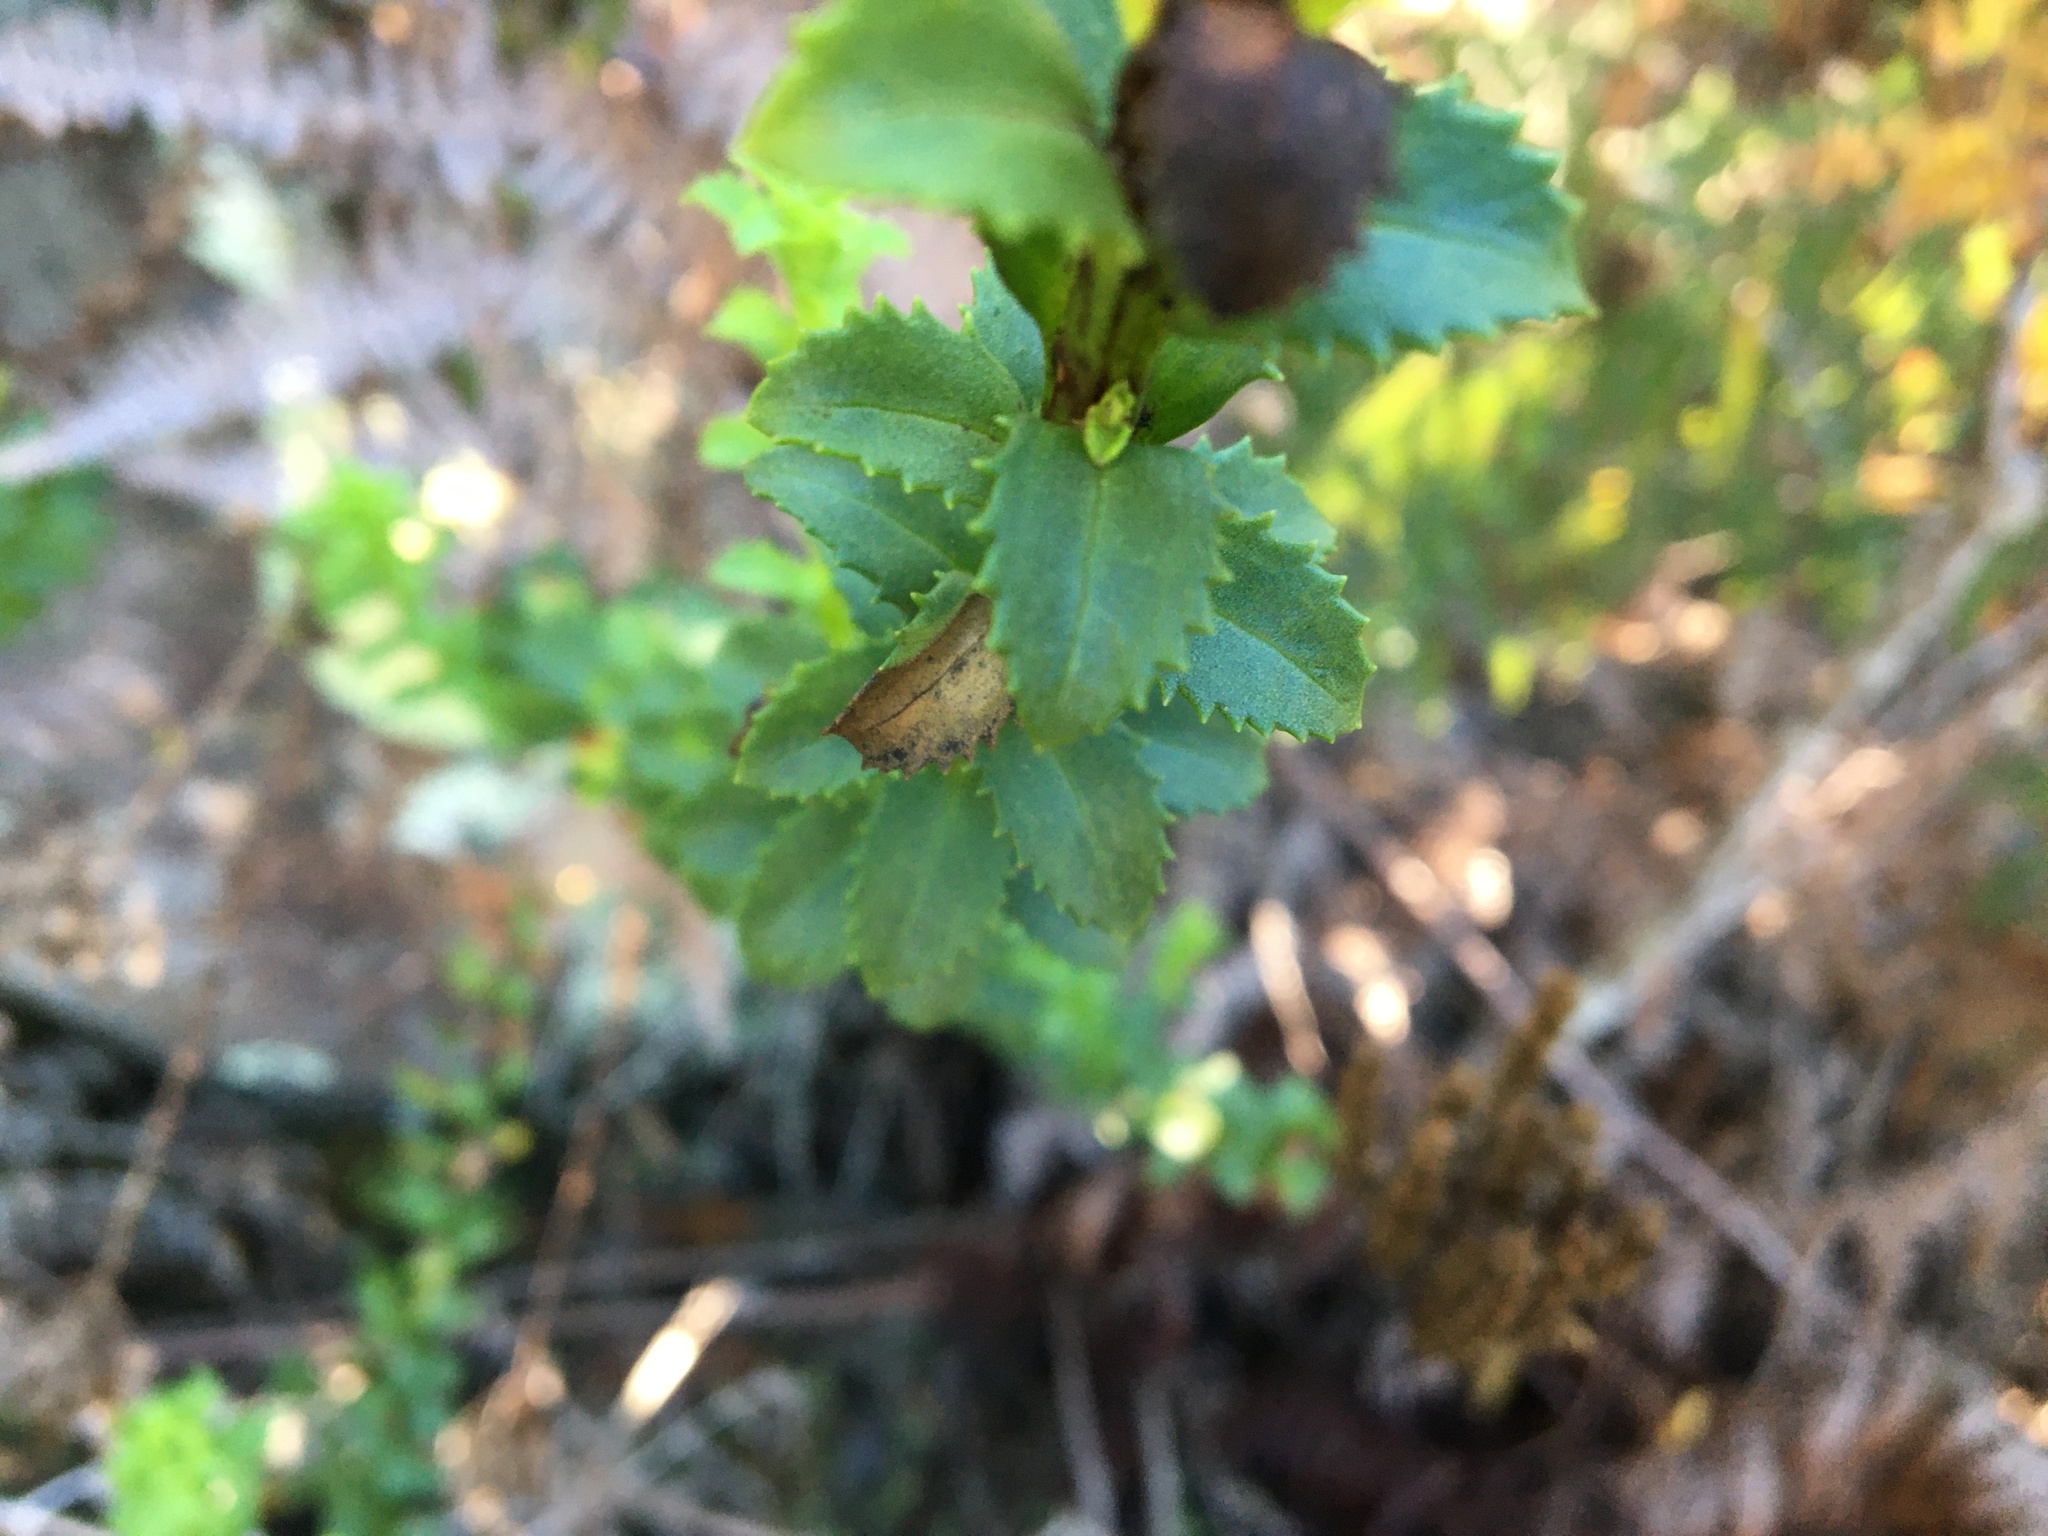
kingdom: Plantae
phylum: Tracheophyta
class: Magnoliopsida
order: Lamiales
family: Scrophulariaceae
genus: Pseudoselago
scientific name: Pseudoselago serrata
